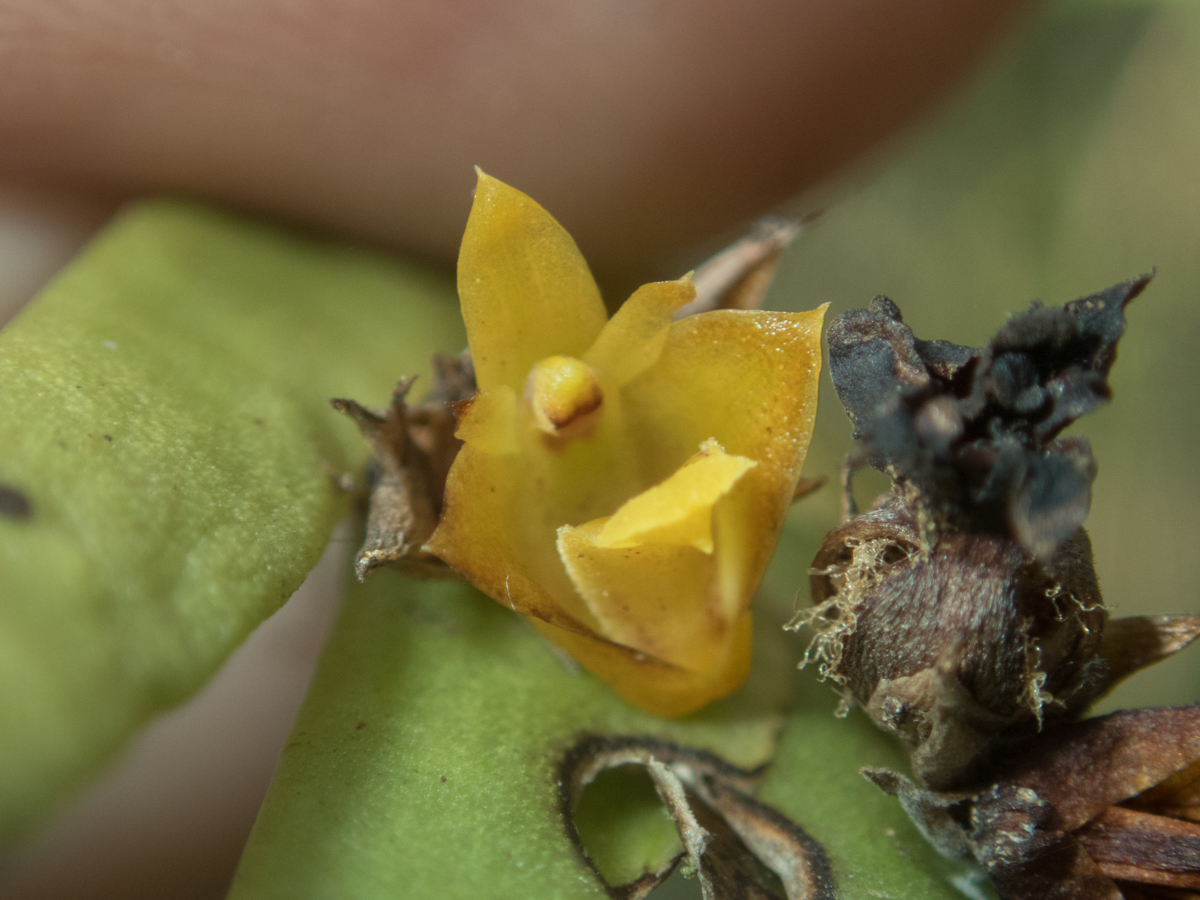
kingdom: Plantae
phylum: Tracheophyta
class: Liliopsida
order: Asparagales
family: Orchidaceae
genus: Oxystophyllum
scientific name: Oxystophyllum carnosum
